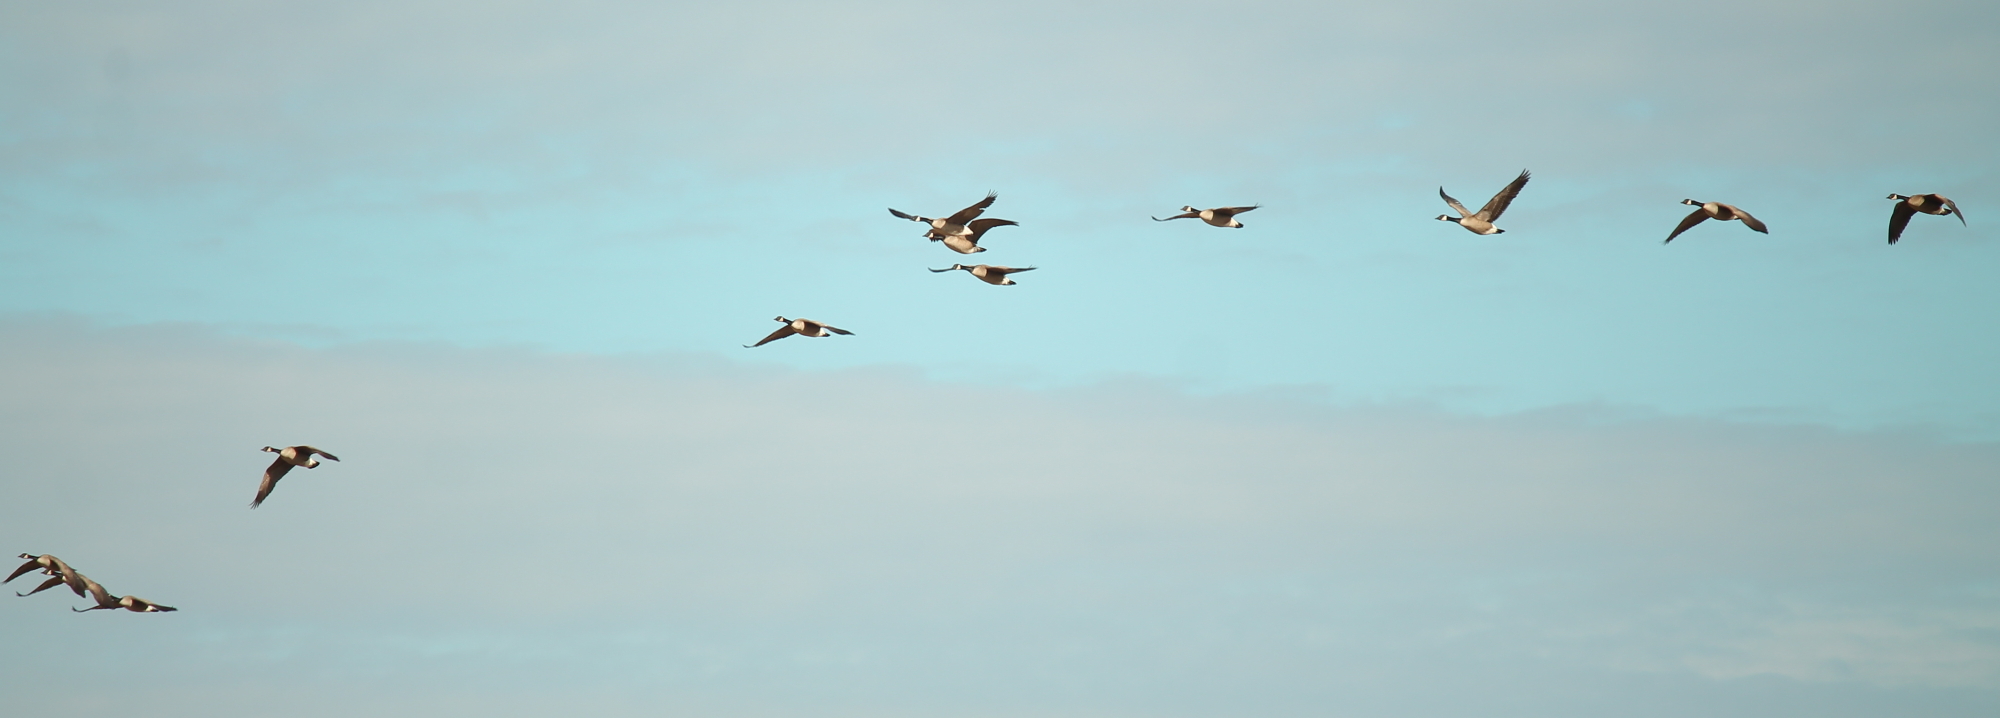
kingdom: Animalia
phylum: Chordata
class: Aves
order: Anseriformes
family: Anatidae
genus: Branta
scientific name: Branta canadensis
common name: Canada goose
